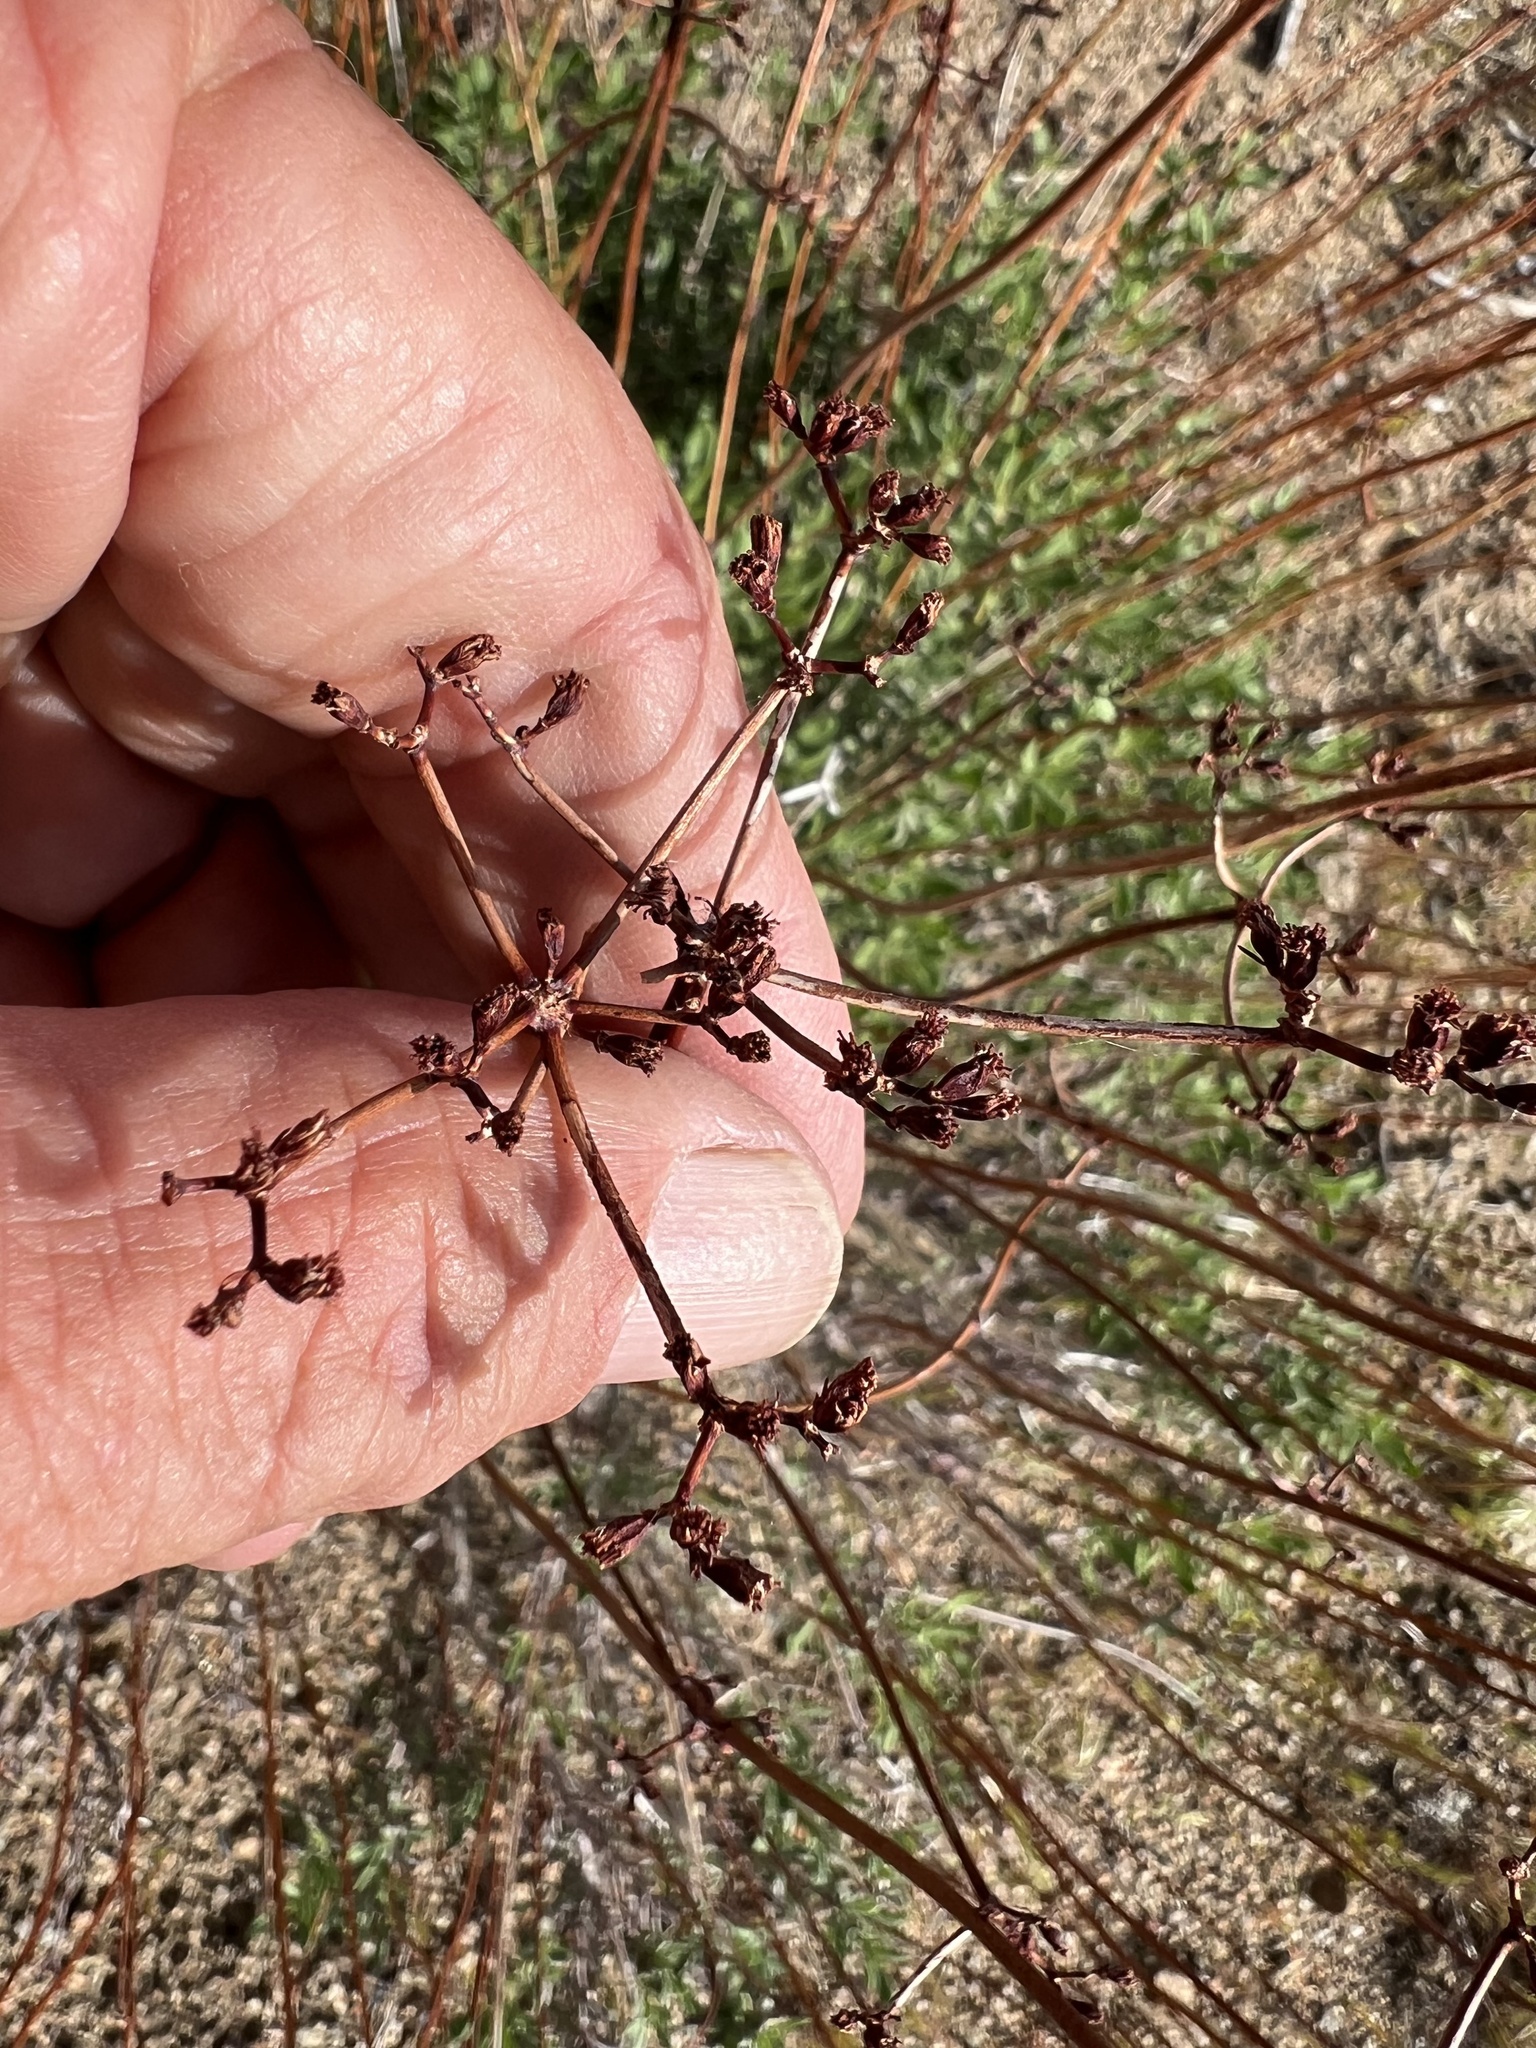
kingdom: Plantae
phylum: Tracheophyta
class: Magnoliopsida
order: Caryophyllales
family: Polygonaceae
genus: Eriogonum
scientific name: Eriogonum fasciculatum
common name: California wild buckwheat
